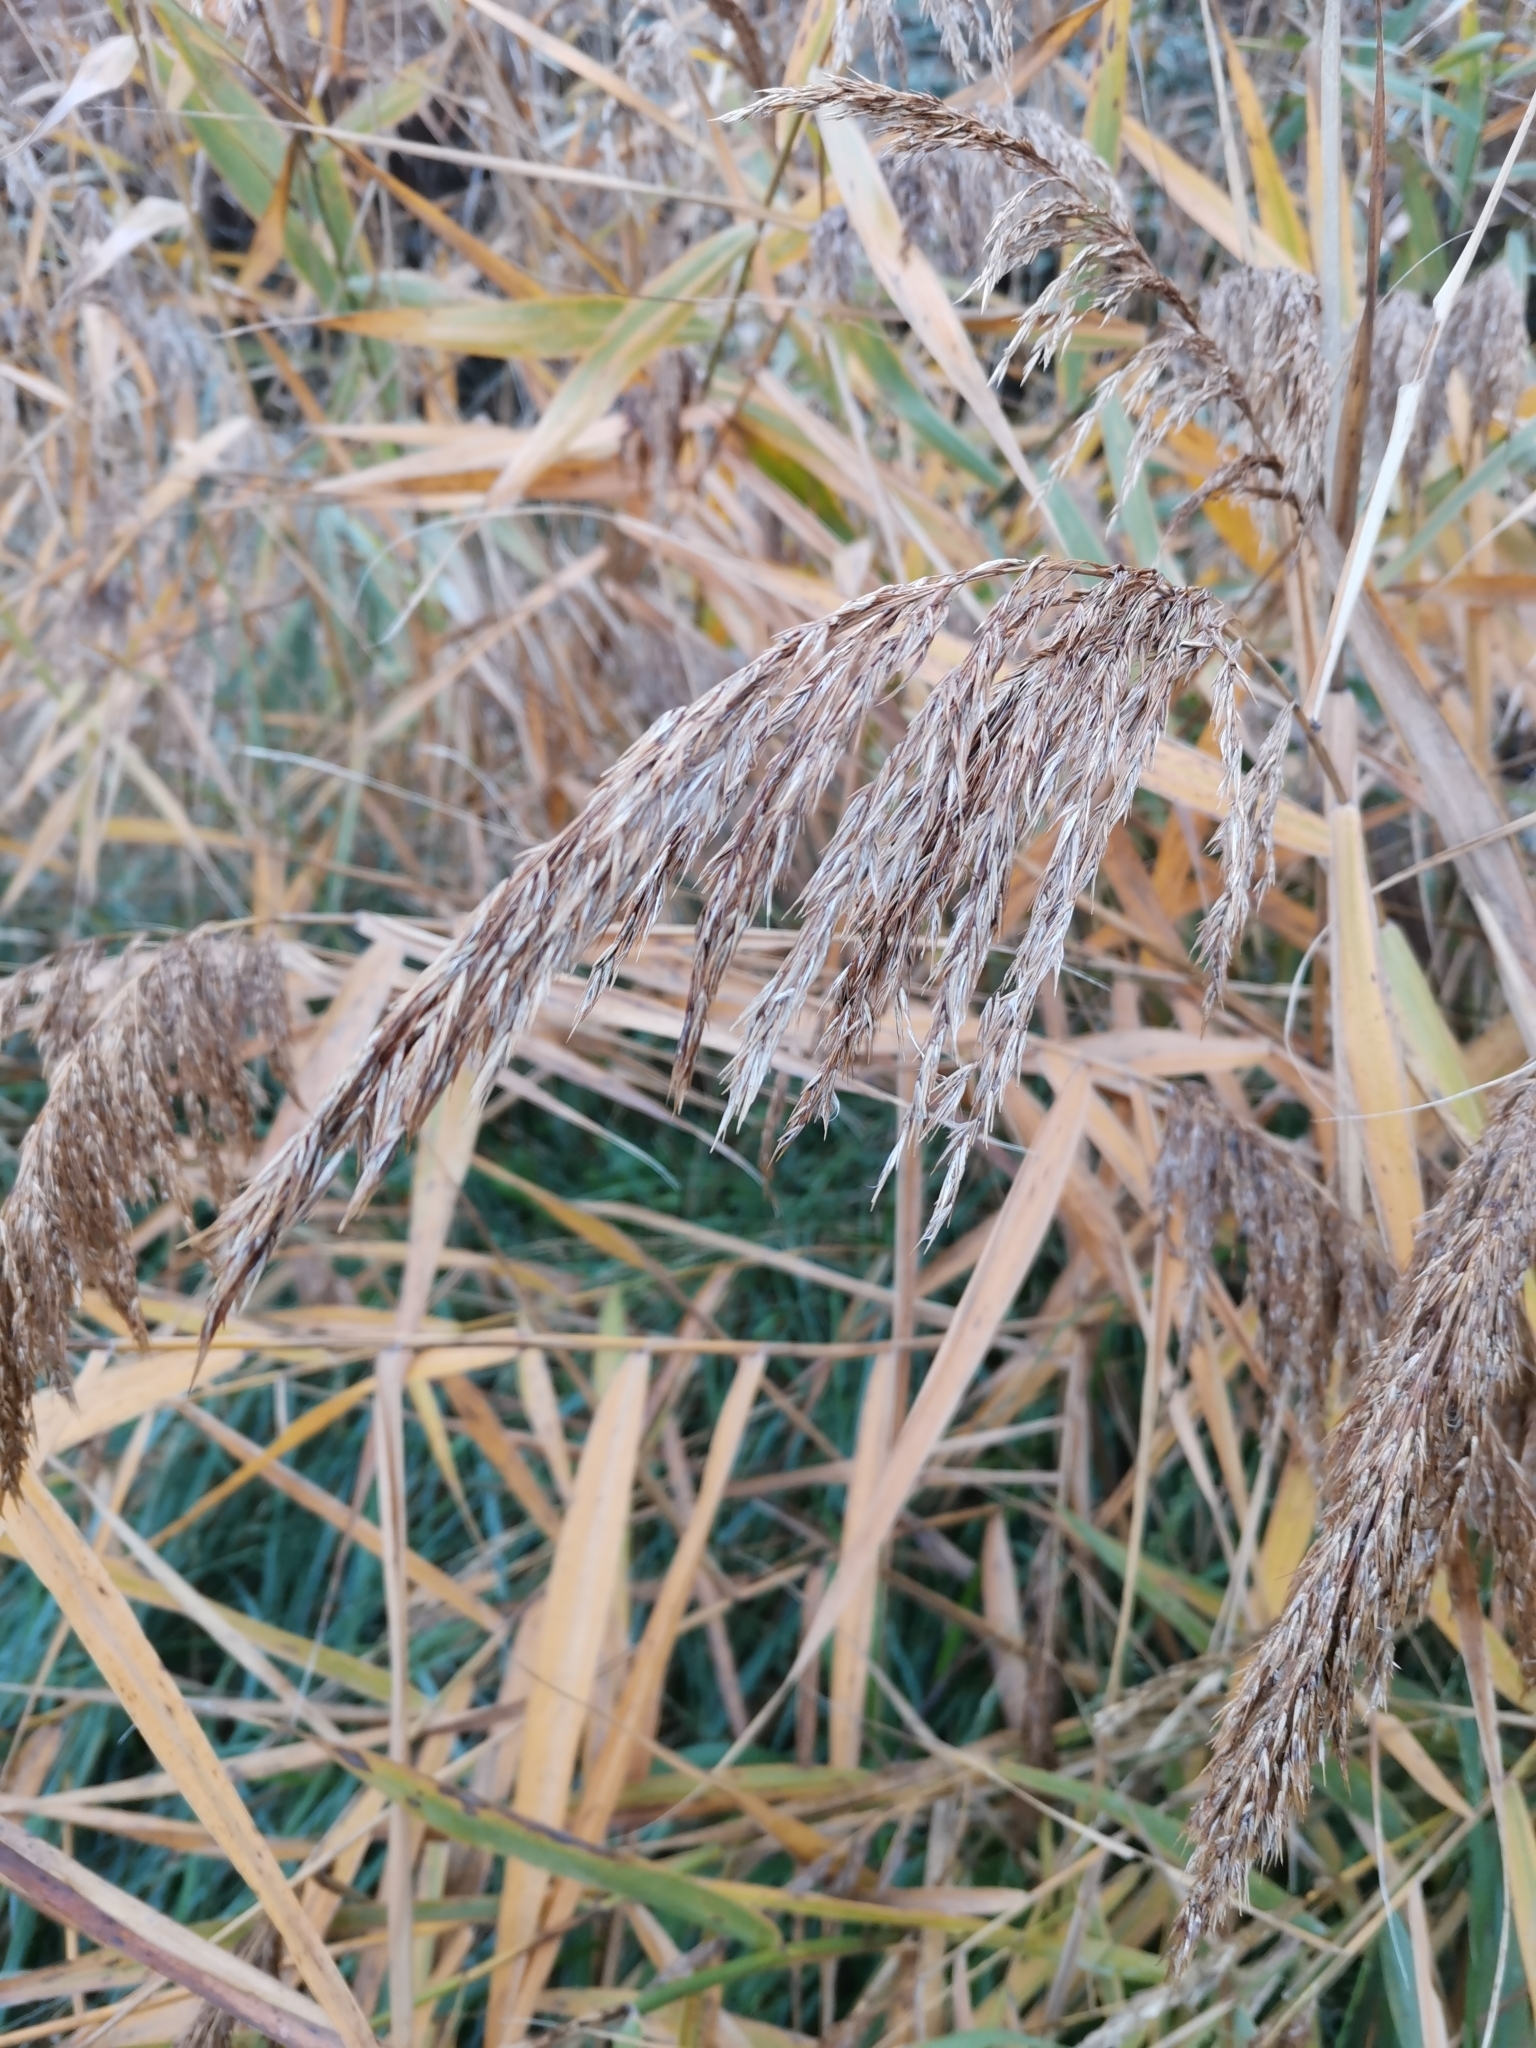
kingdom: Plantae
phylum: Tracheophyta
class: Liliopsida
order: Poales
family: Poaceae
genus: Phragmites
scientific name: Phragmites australis
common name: Common reed
